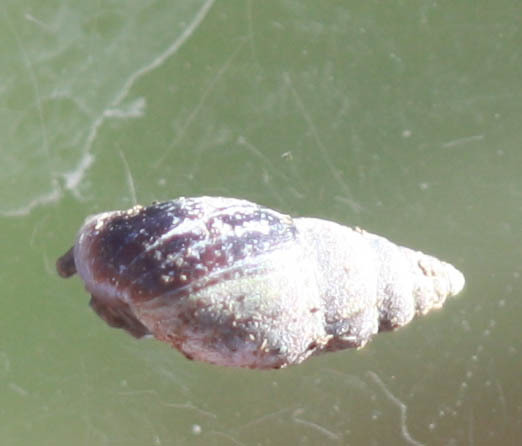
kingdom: Animalia
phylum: Mollusca
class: Gastropoda
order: Ellobiida
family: Ellobiidae
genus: Myosotella
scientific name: Myosotella myosotis
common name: Mouse-eared snail
